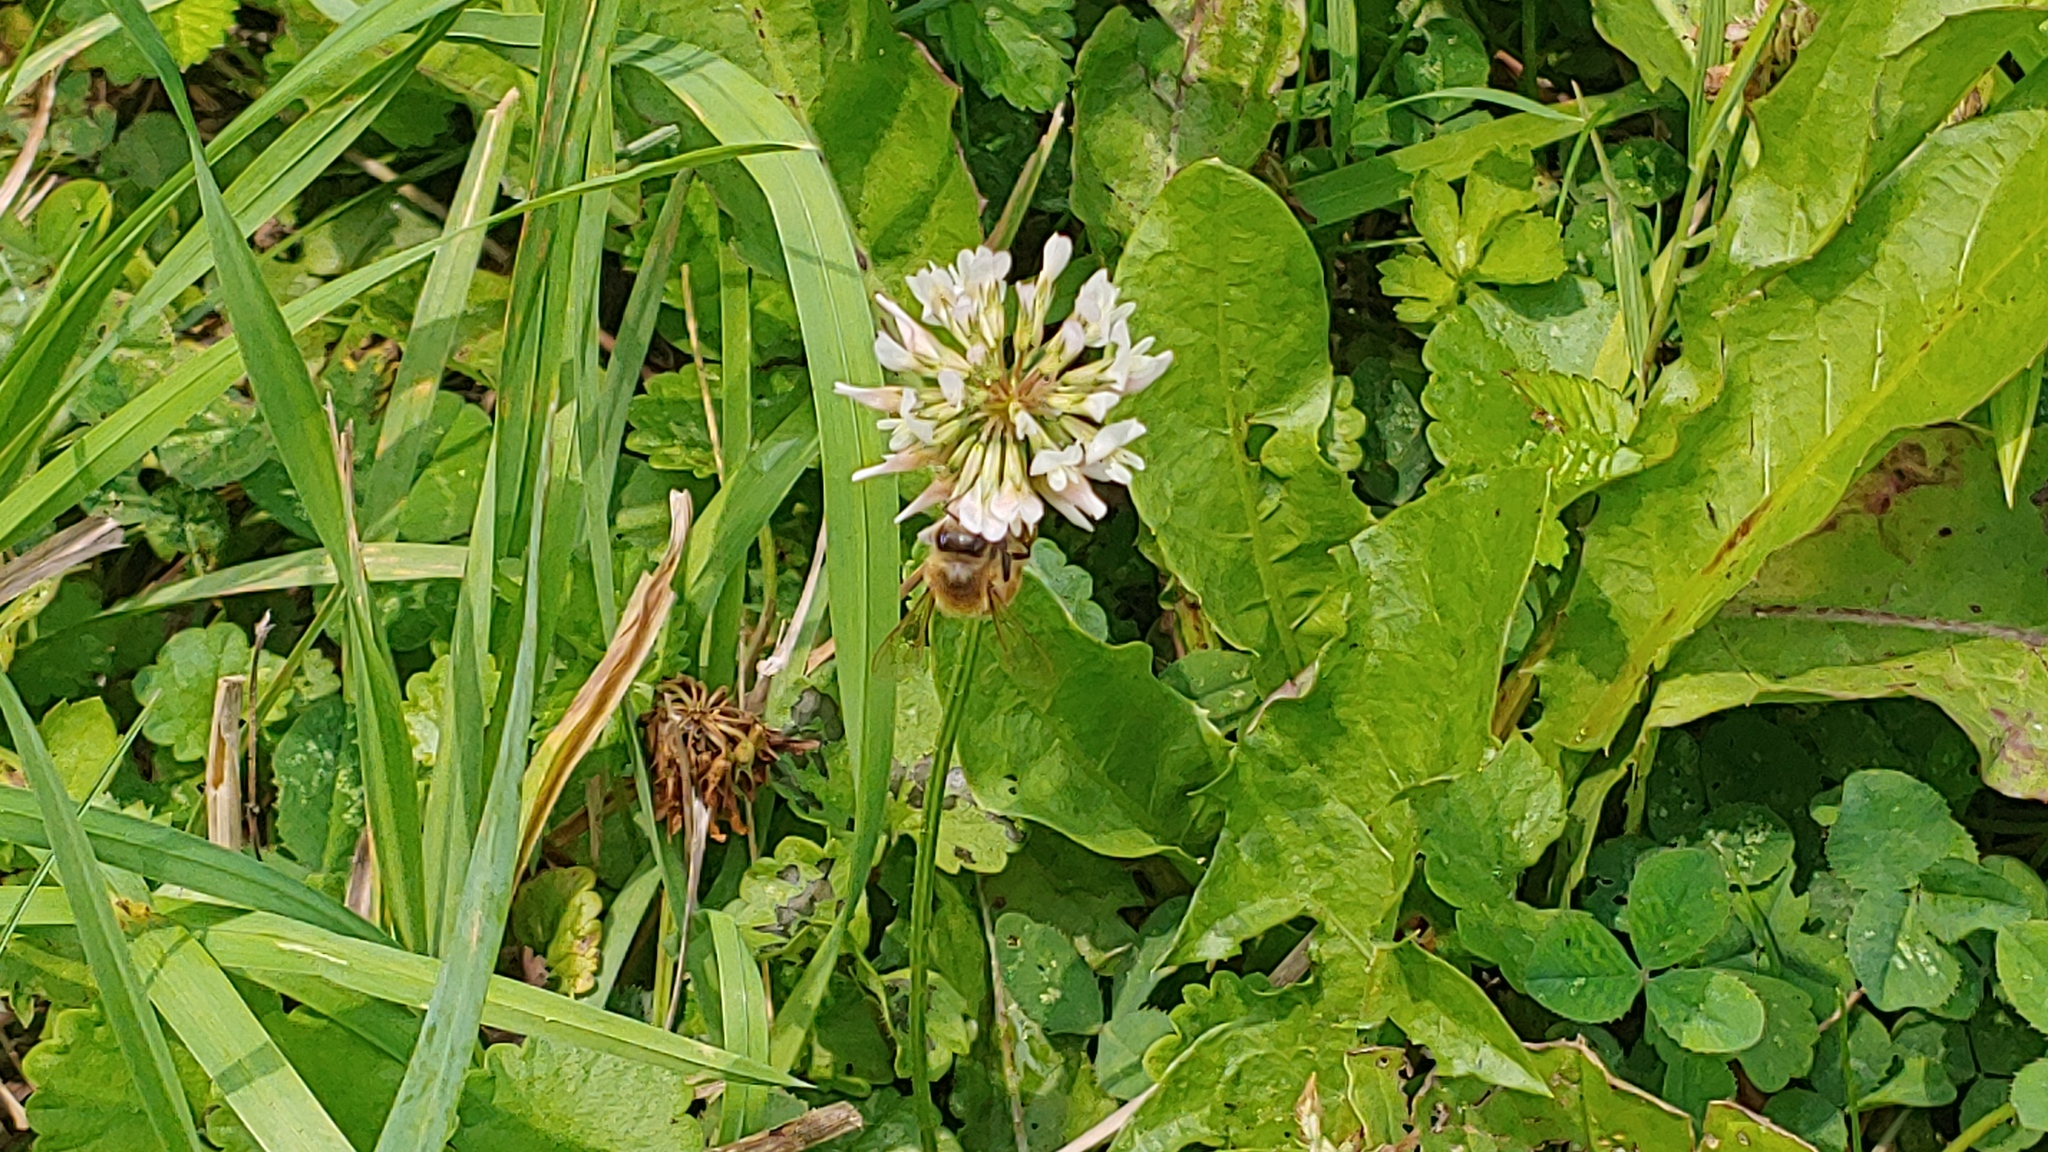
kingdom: Animalia
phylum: Arthropoda
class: Insecta
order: Hymenoptera
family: Apidae
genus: Apis
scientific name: Apis mellifera
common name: Honey bee
